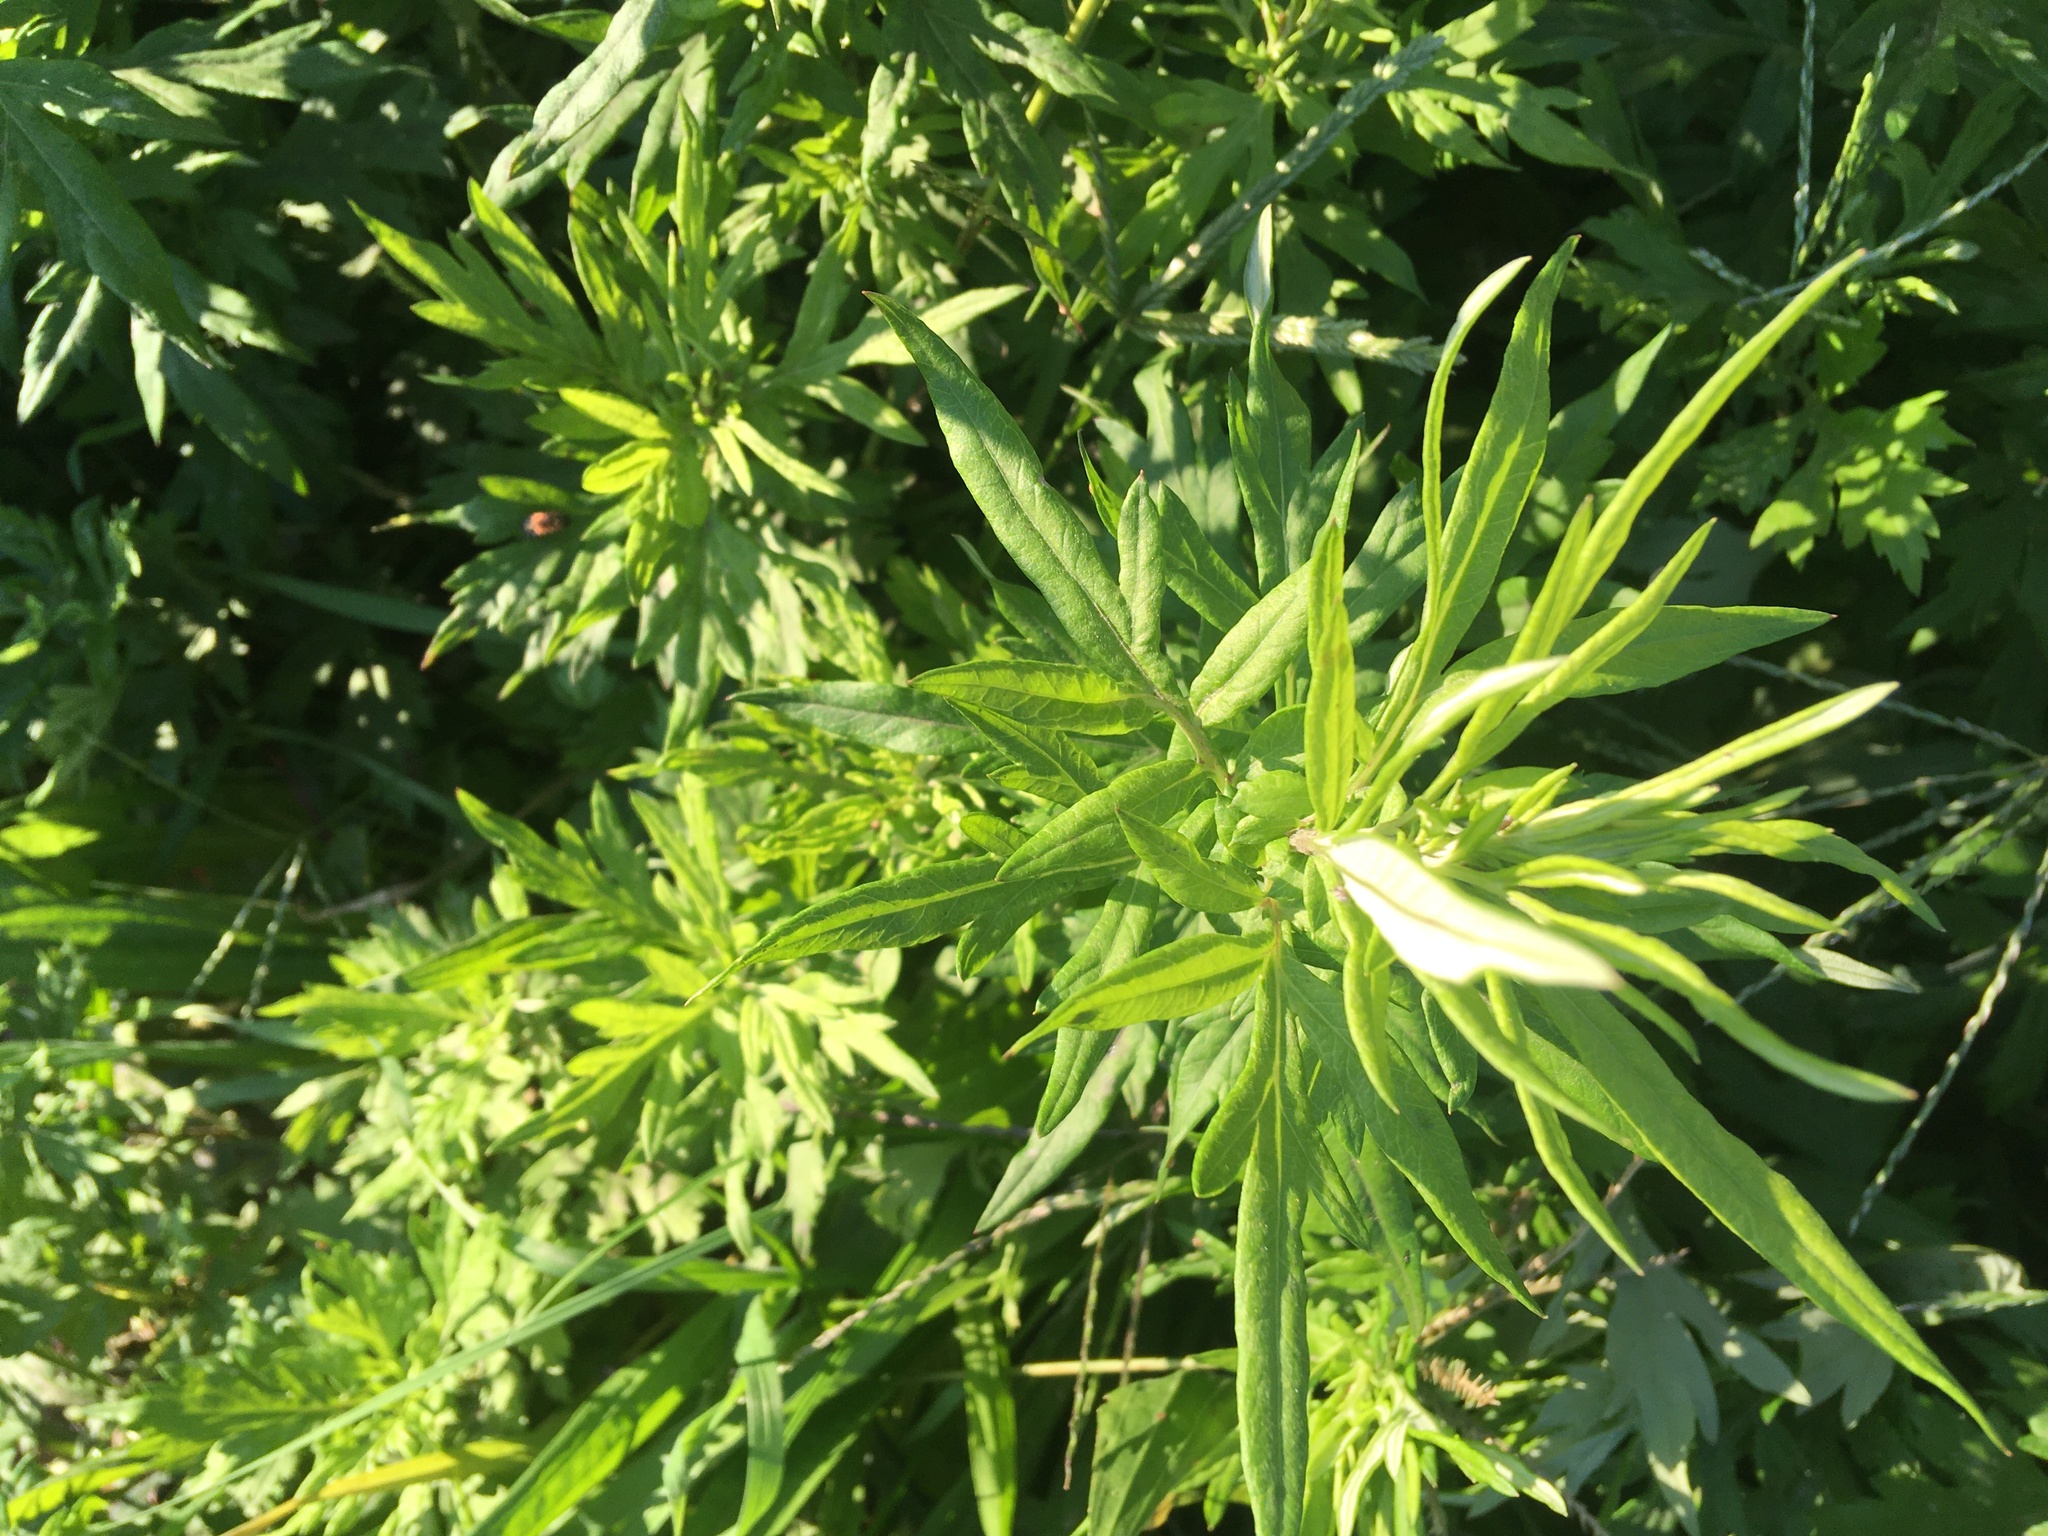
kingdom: Plantae
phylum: Tracheophyta
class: Magnoliopsida
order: Asterales
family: Asteraceae
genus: Artemisia
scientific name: Artemisia vulgaris
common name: Mugwort
